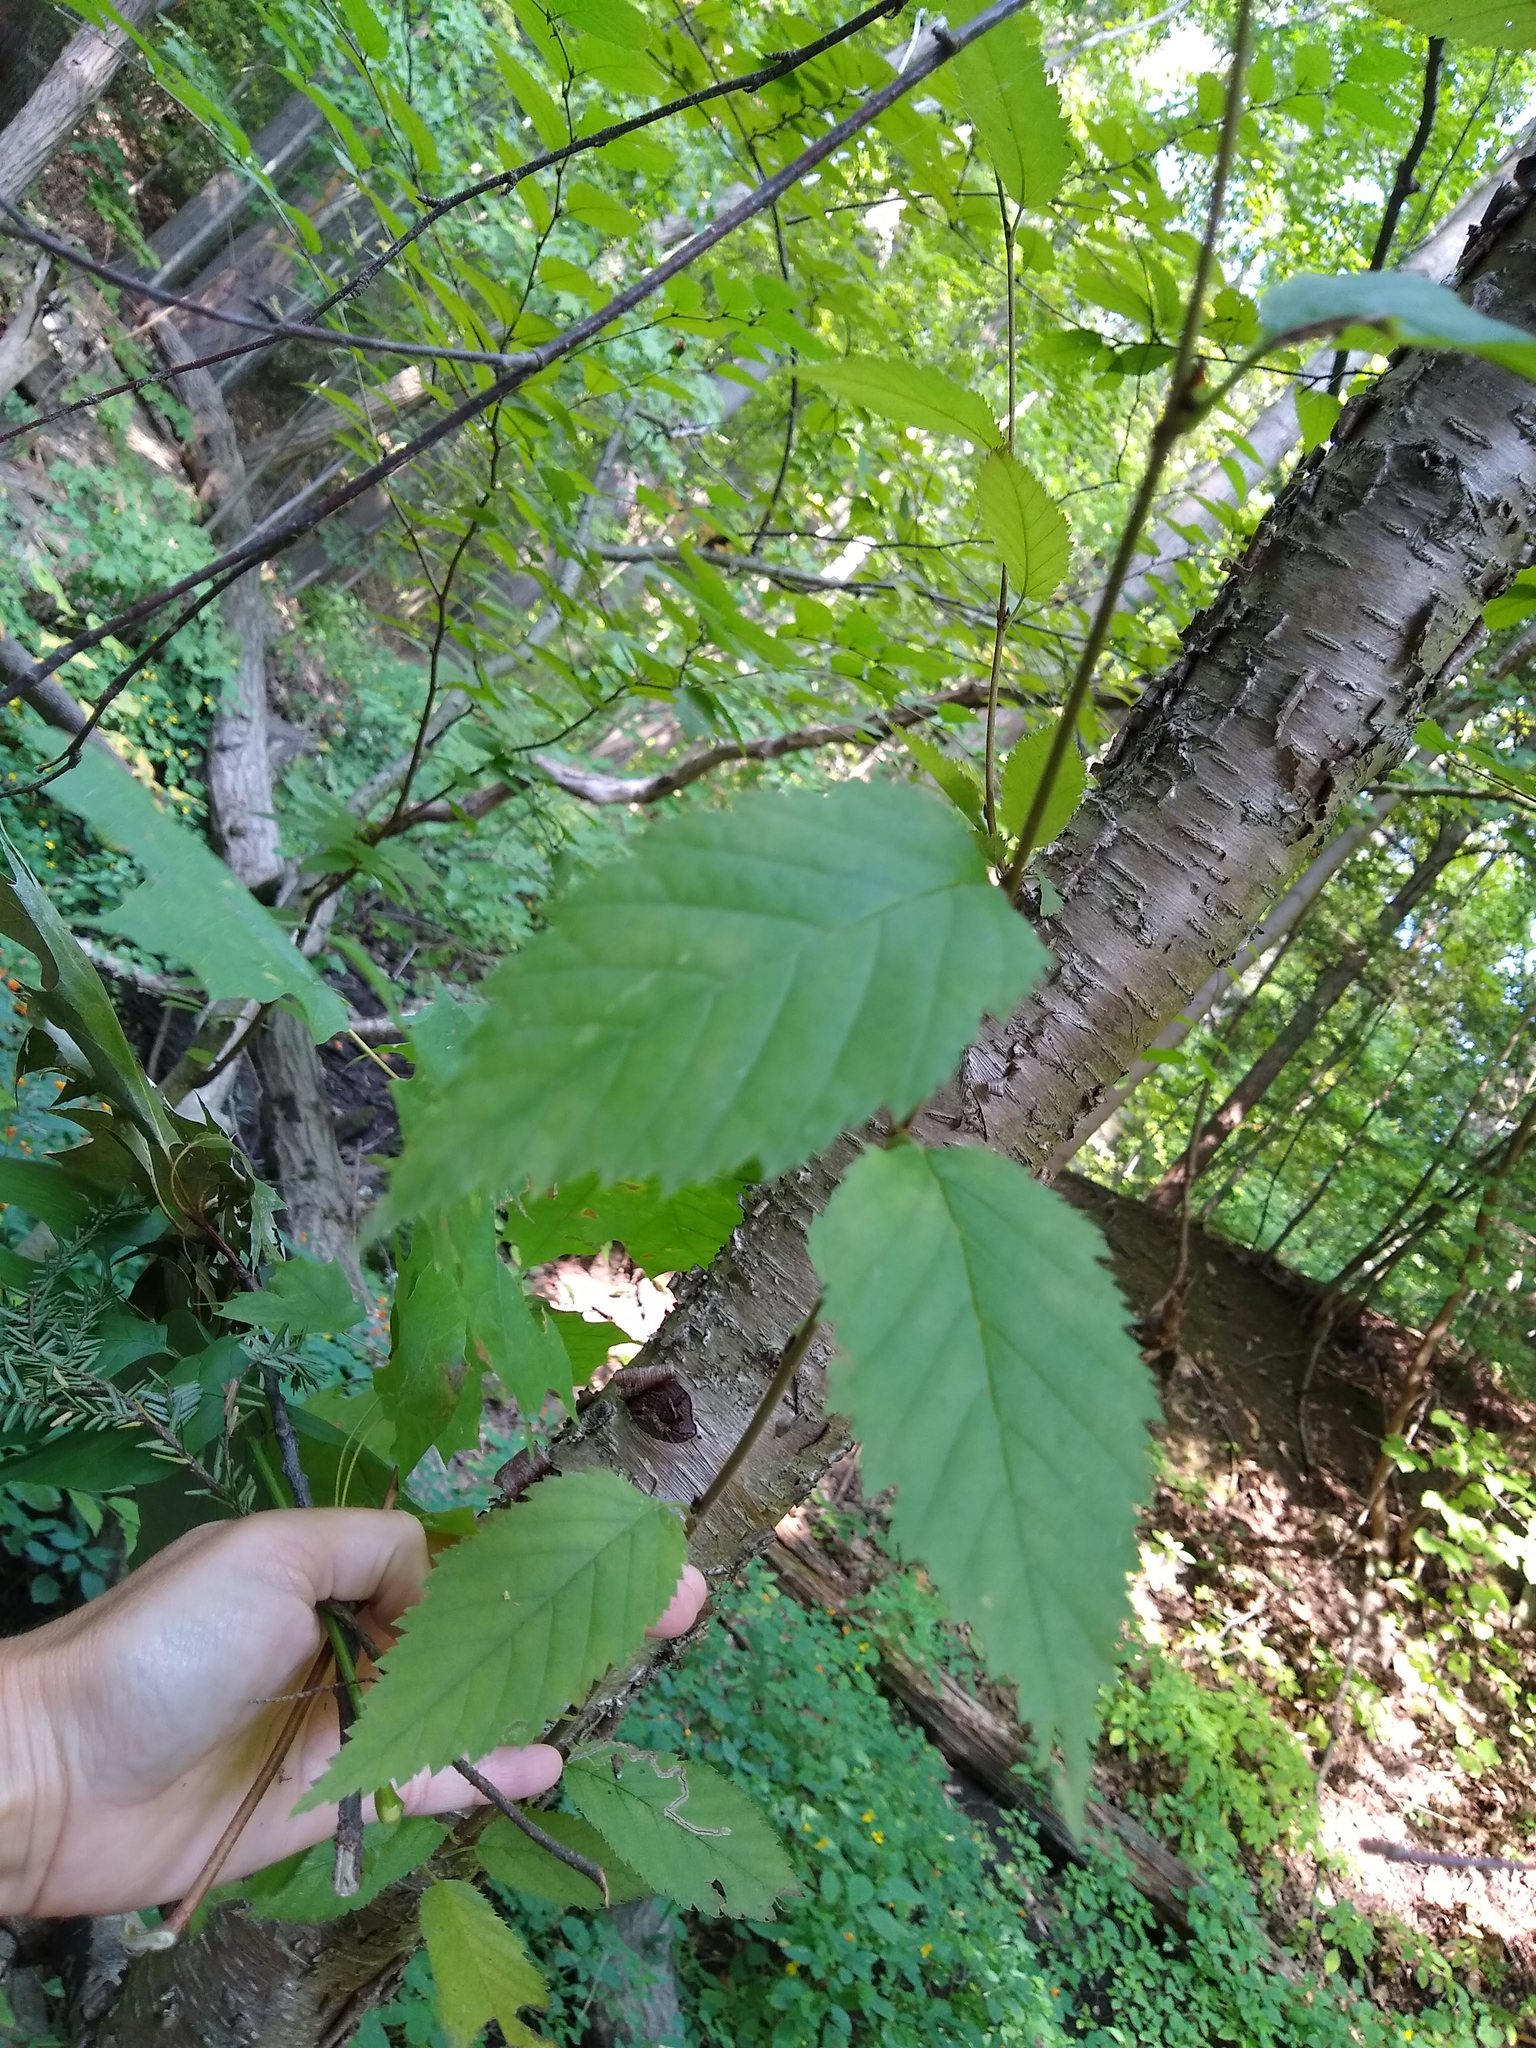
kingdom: Plantae
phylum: Tracheophyta
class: Magnoliopsida
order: Fagales
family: Betulaceae
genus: Betula
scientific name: Betula alleghaniensis
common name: Yellow birch
